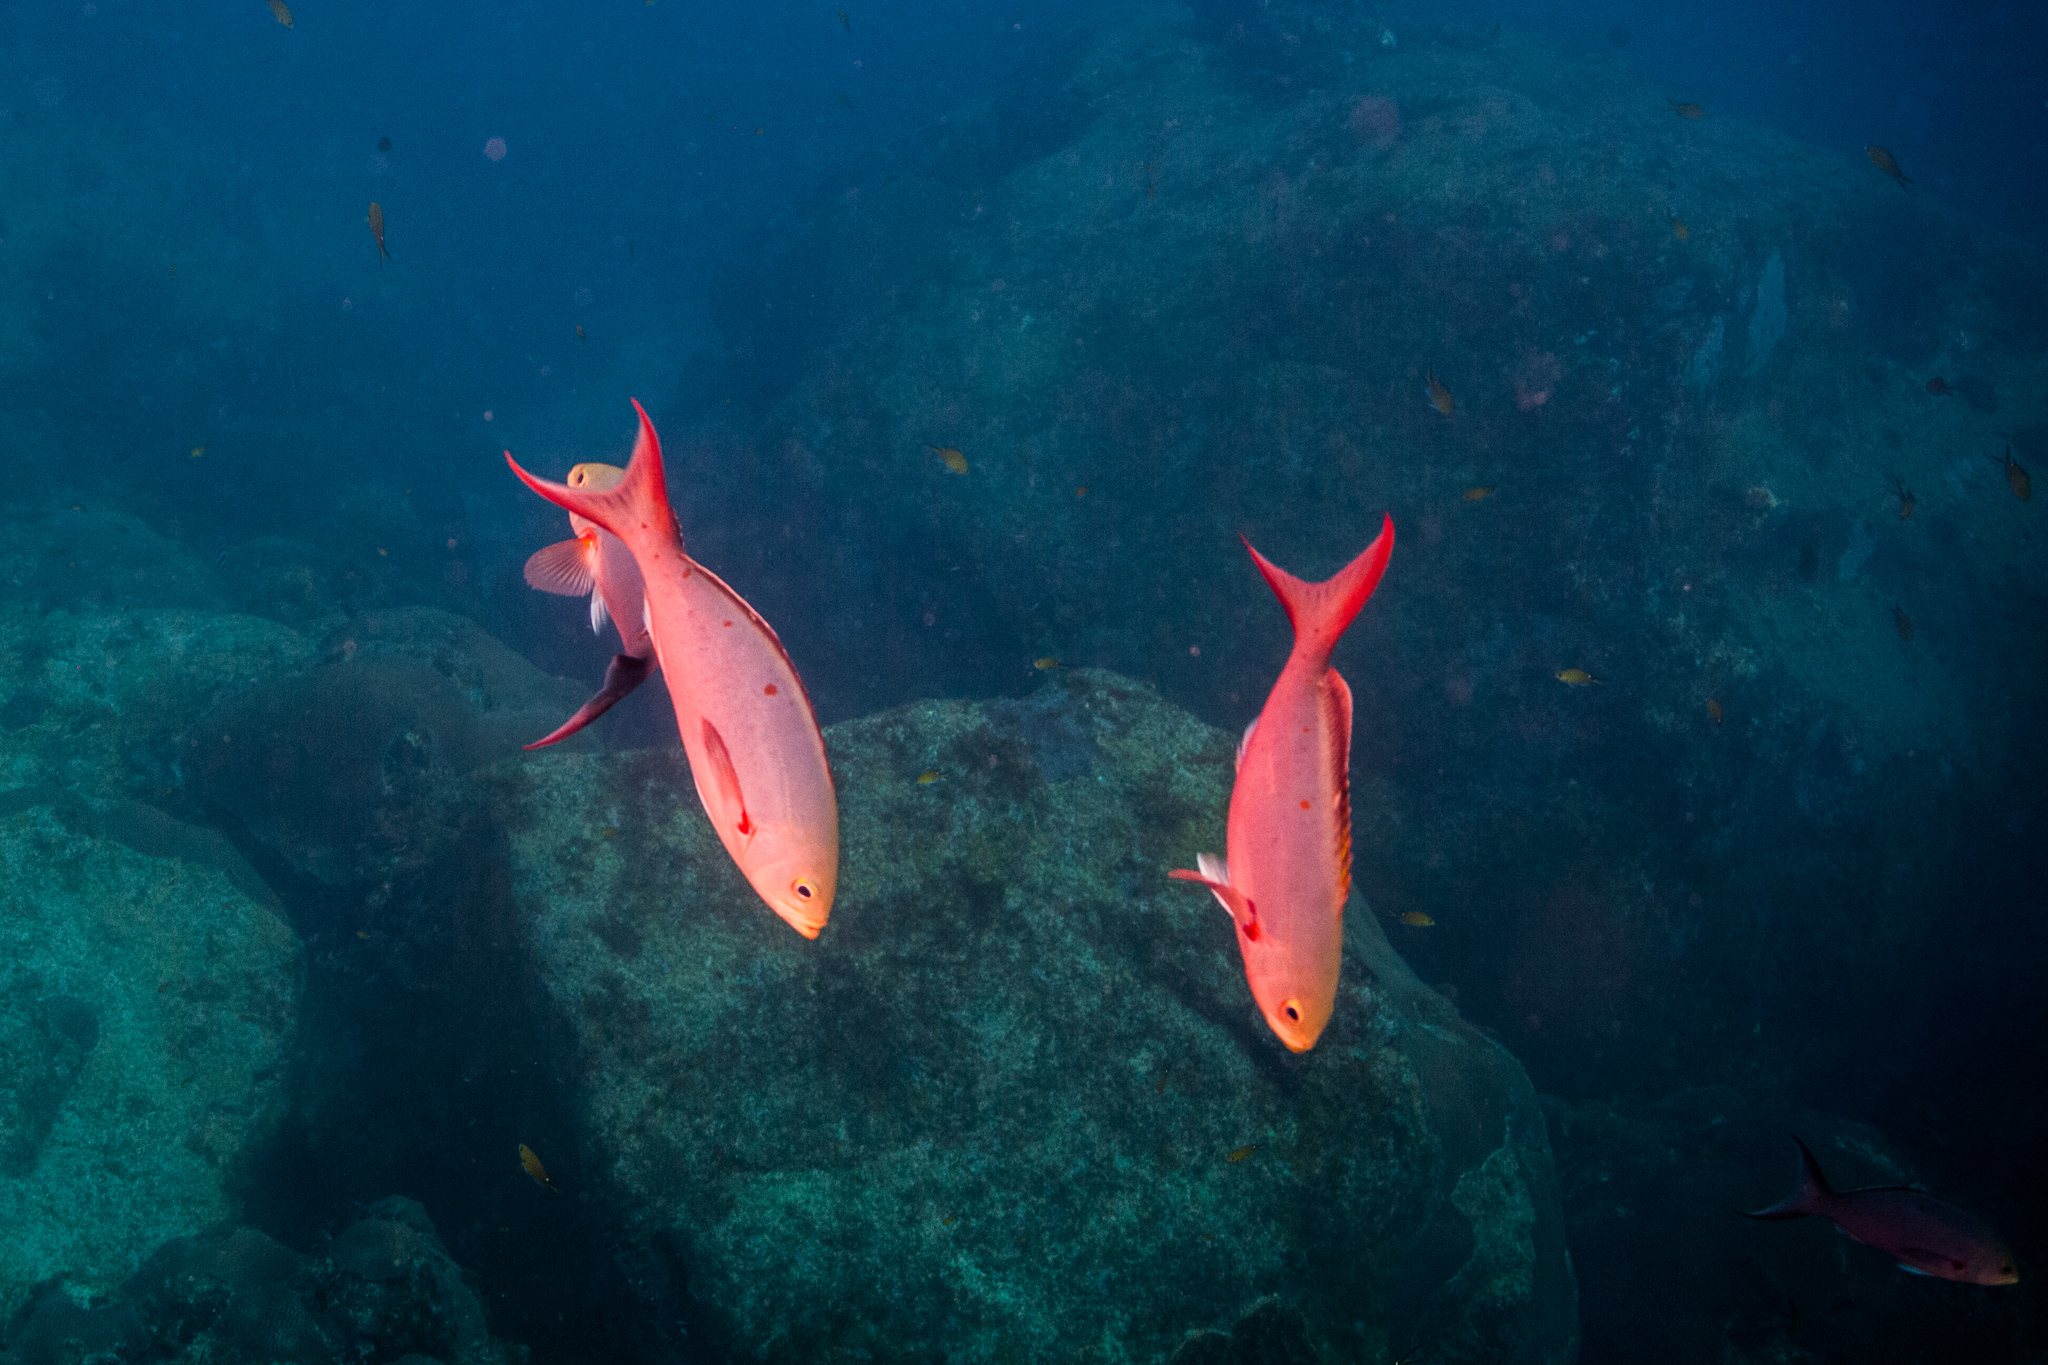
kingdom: Animalia
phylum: Chordata
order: Perciformes
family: Serranidae
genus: Paranthias
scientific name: Paranthias furcifer
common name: Creole-fish
